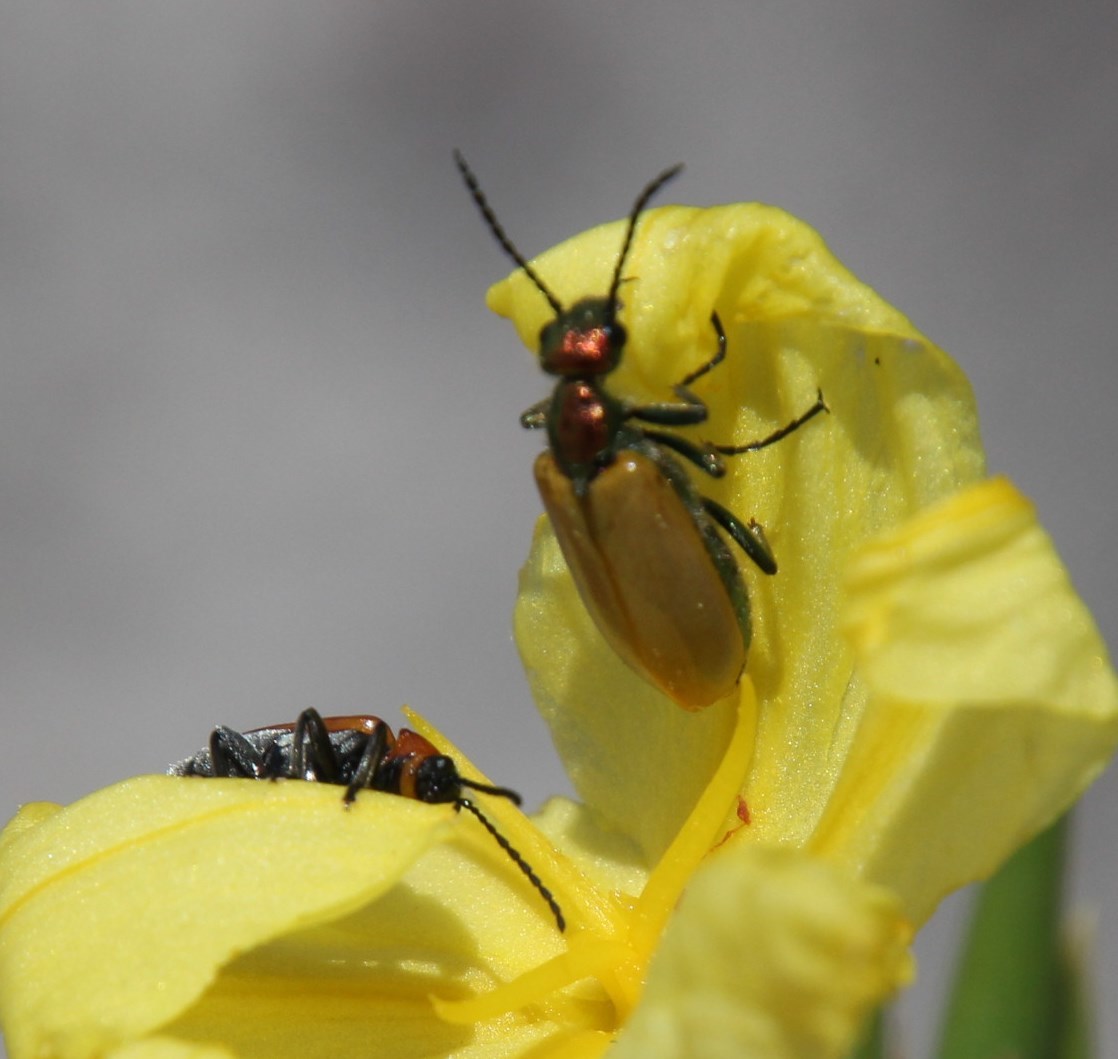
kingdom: Animalia
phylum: Arthropoda
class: Insecta
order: Coleoptera
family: Meloidae
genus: Prolytta
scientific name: Prolytta
